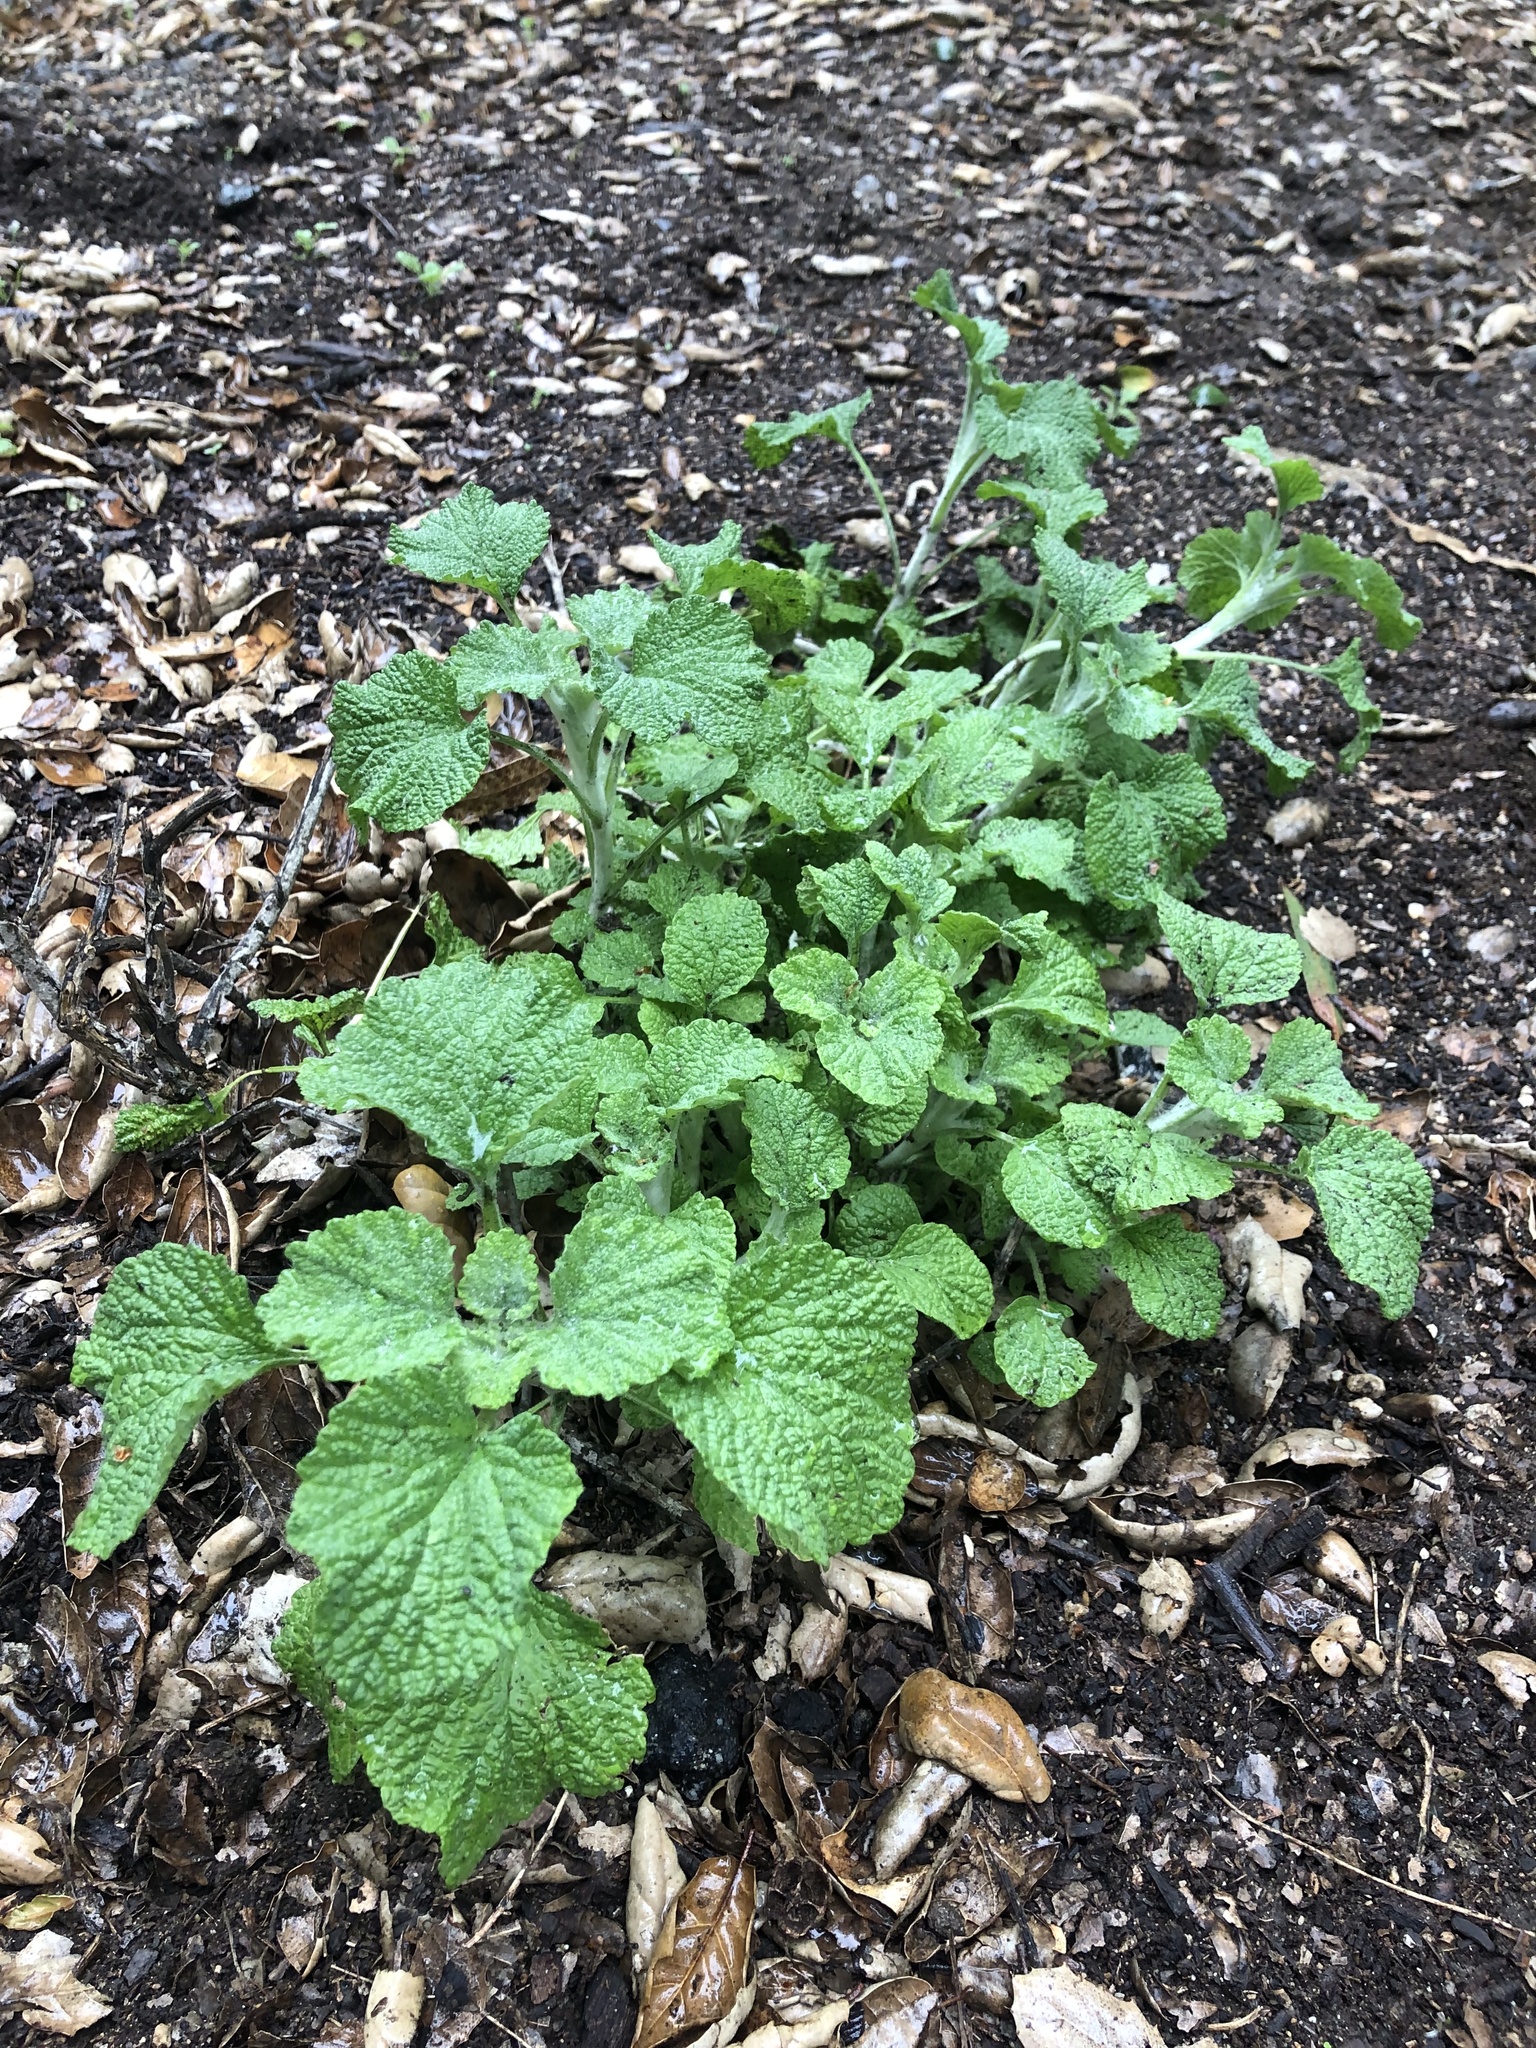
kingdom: Plantae
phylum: Tracheophyta
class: Magnoliopsida
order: Lamiales
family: Lamiaceae
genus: Marrubium
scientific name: Marrubium vulgare
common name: Horehound
